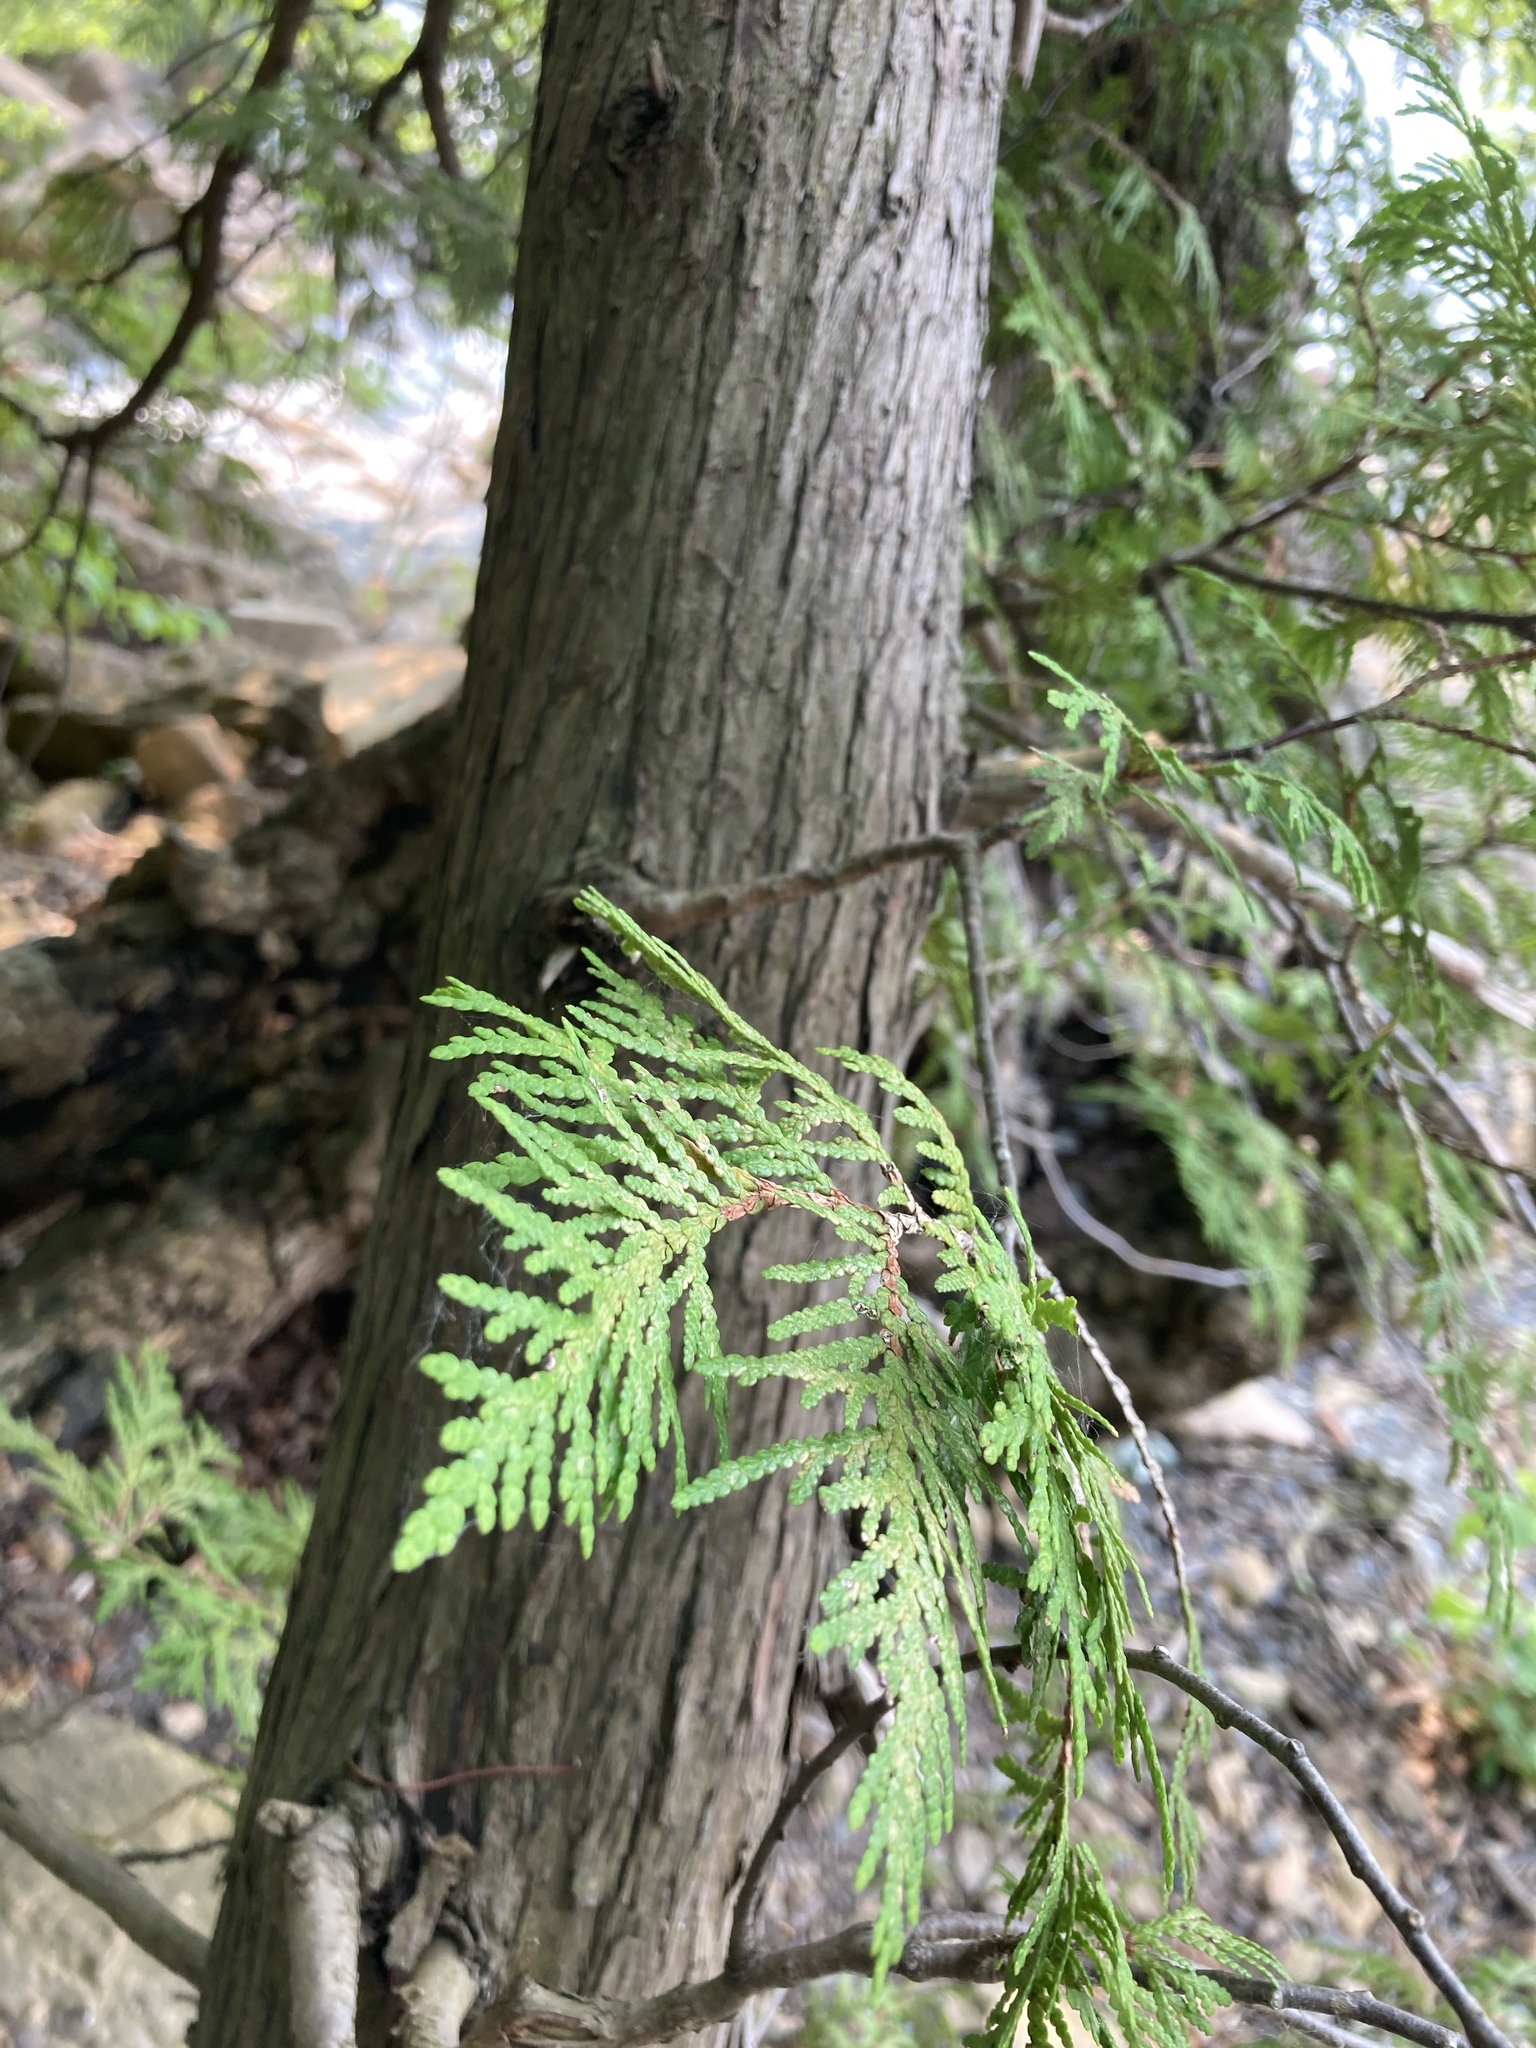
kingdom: Plantae
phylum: Tracheophyta
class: Pinopsida
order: Pinales
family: Cupressaceae
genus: Thuja
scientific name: Thuja occidentalis
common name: Northern white-cedar
